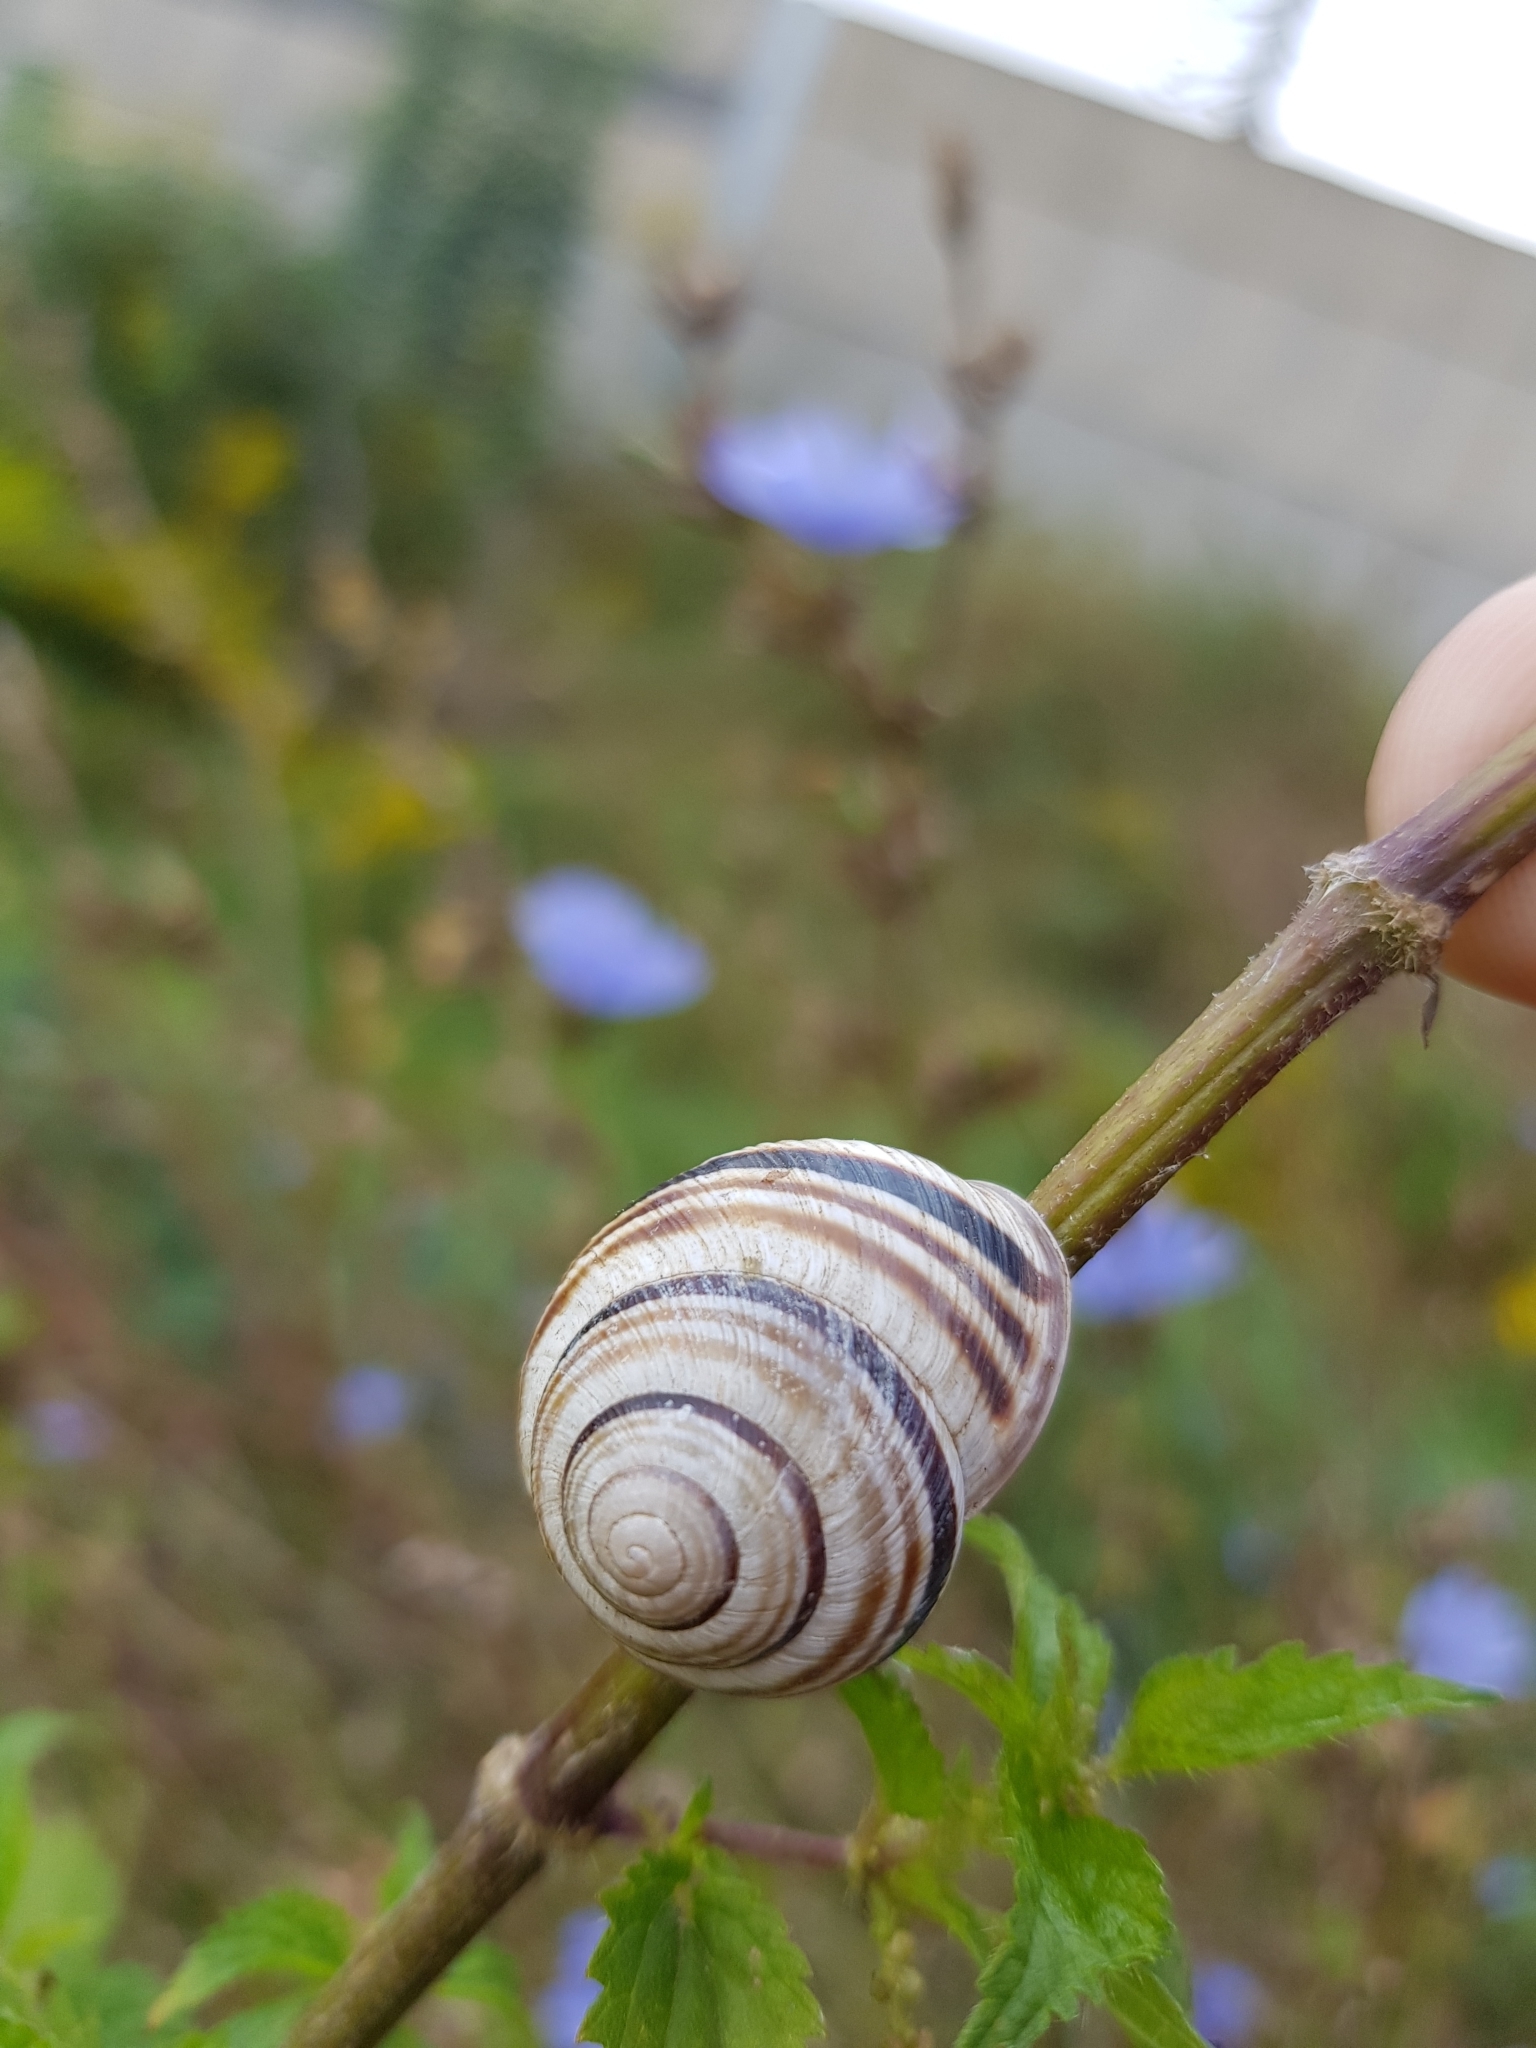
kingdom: Animalia
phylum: Mollusca
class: Gastropoda
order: Stylommatophora
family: Helicidae
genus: Caucasotachea
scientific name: Caucasotachea vindobonensis
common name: European helicid land snail
